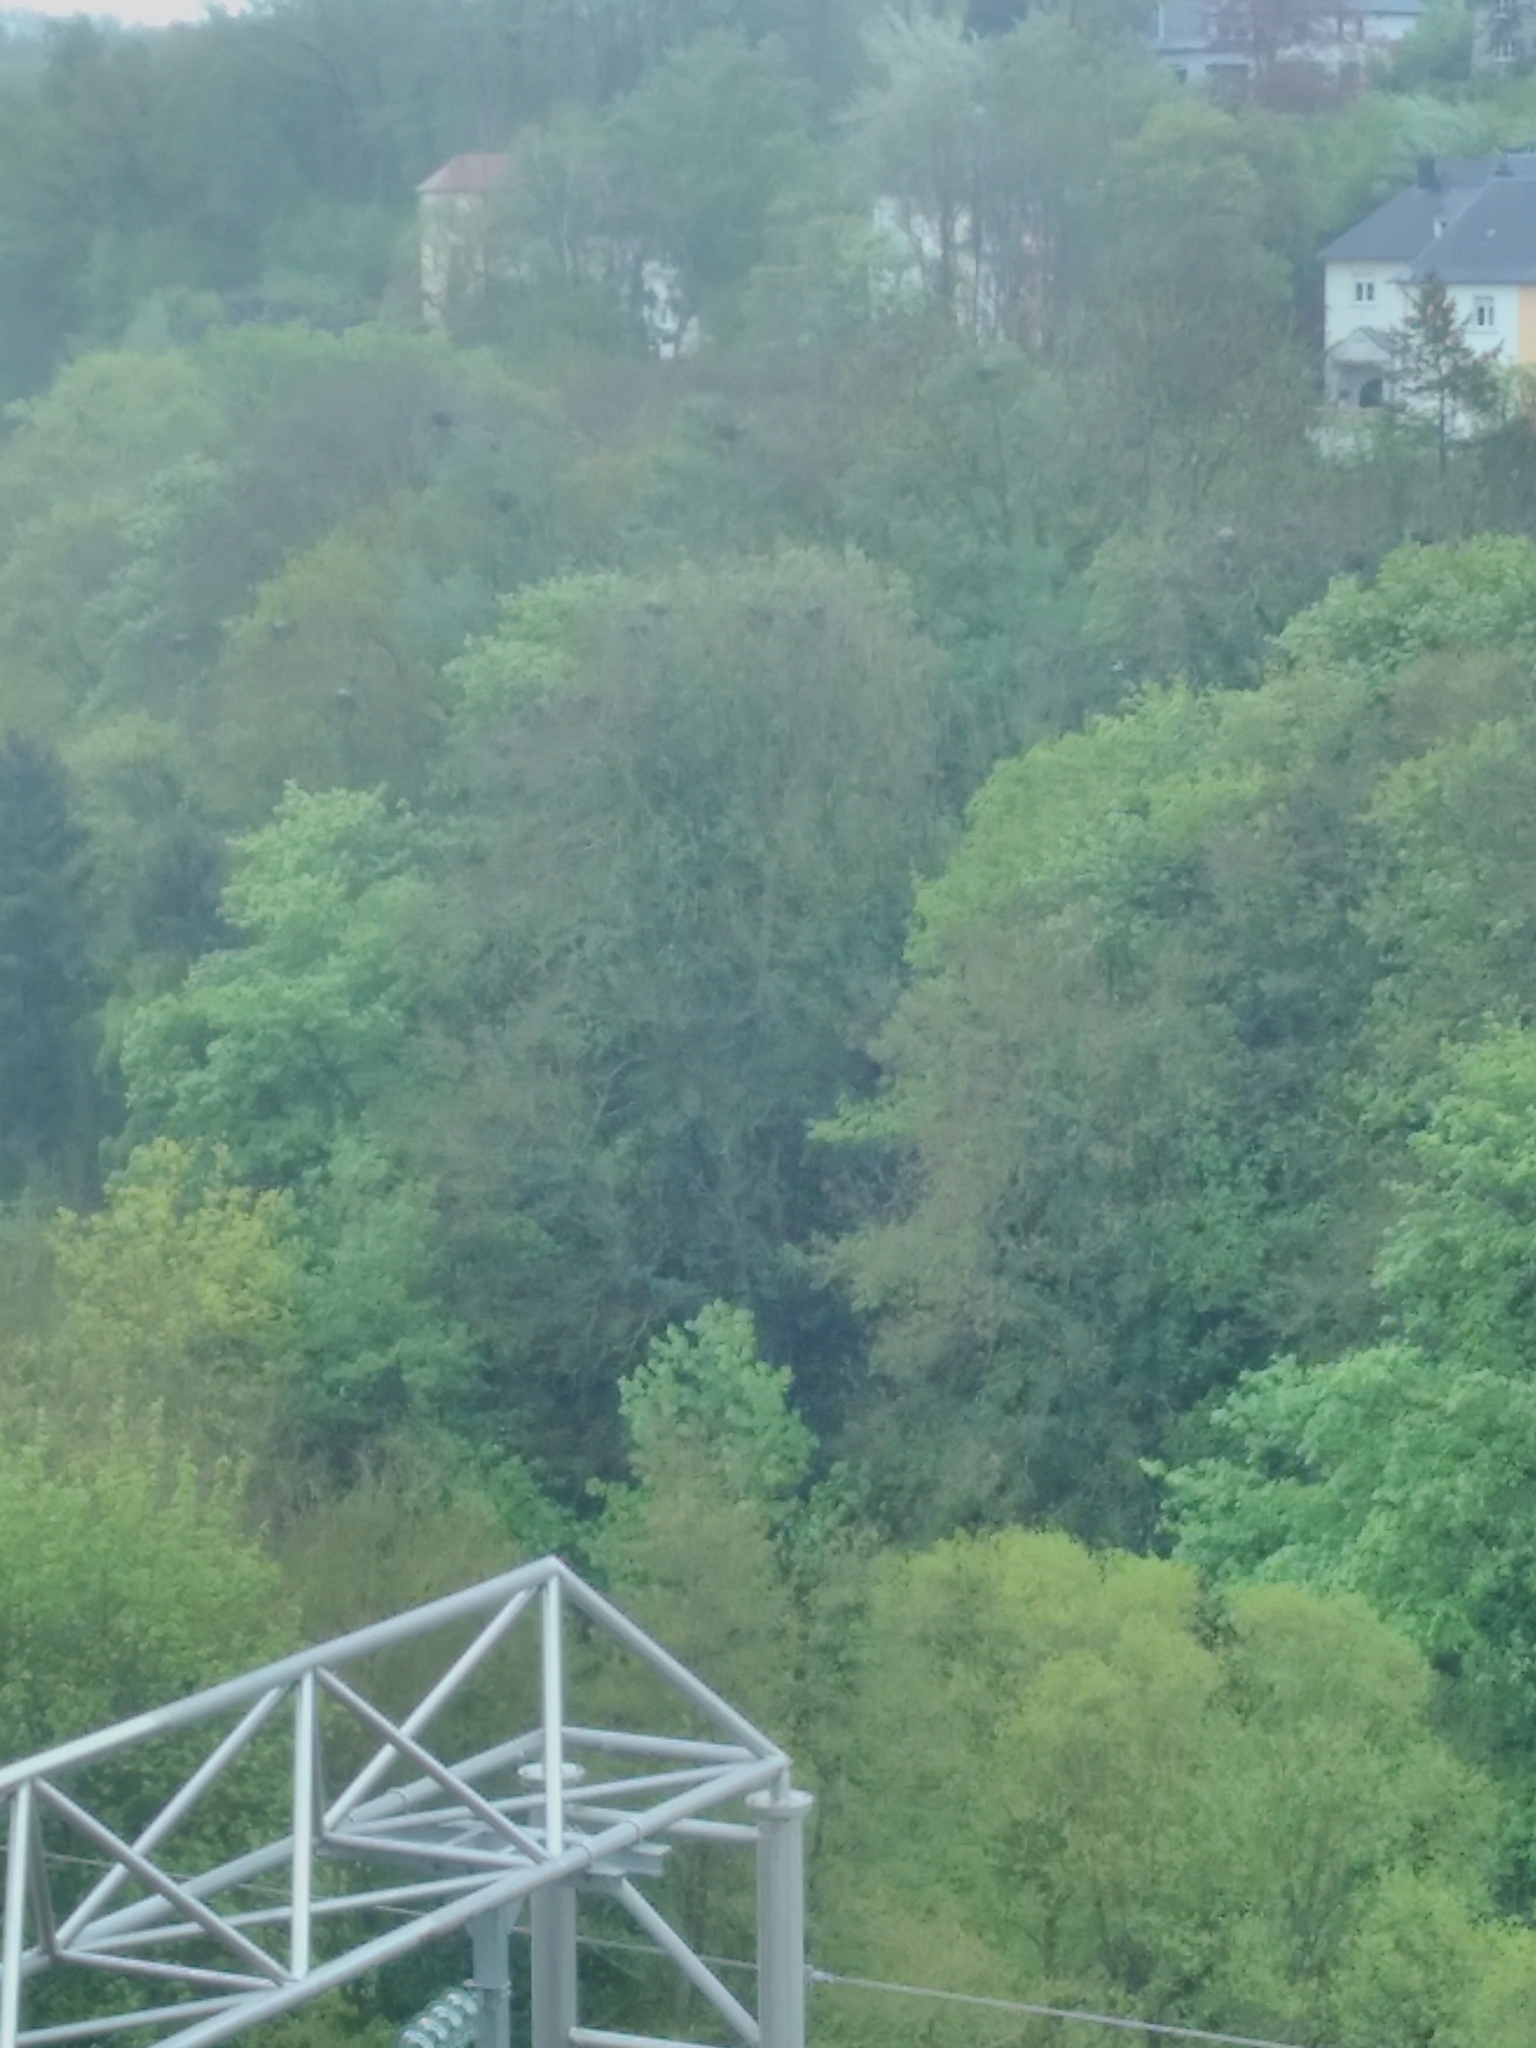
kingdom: Animalia
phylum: Chordata
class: Aves
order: Pelecaniformes
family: Ardeidae
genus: Ardea
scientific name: Ardea cinerea
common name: Grey heron
